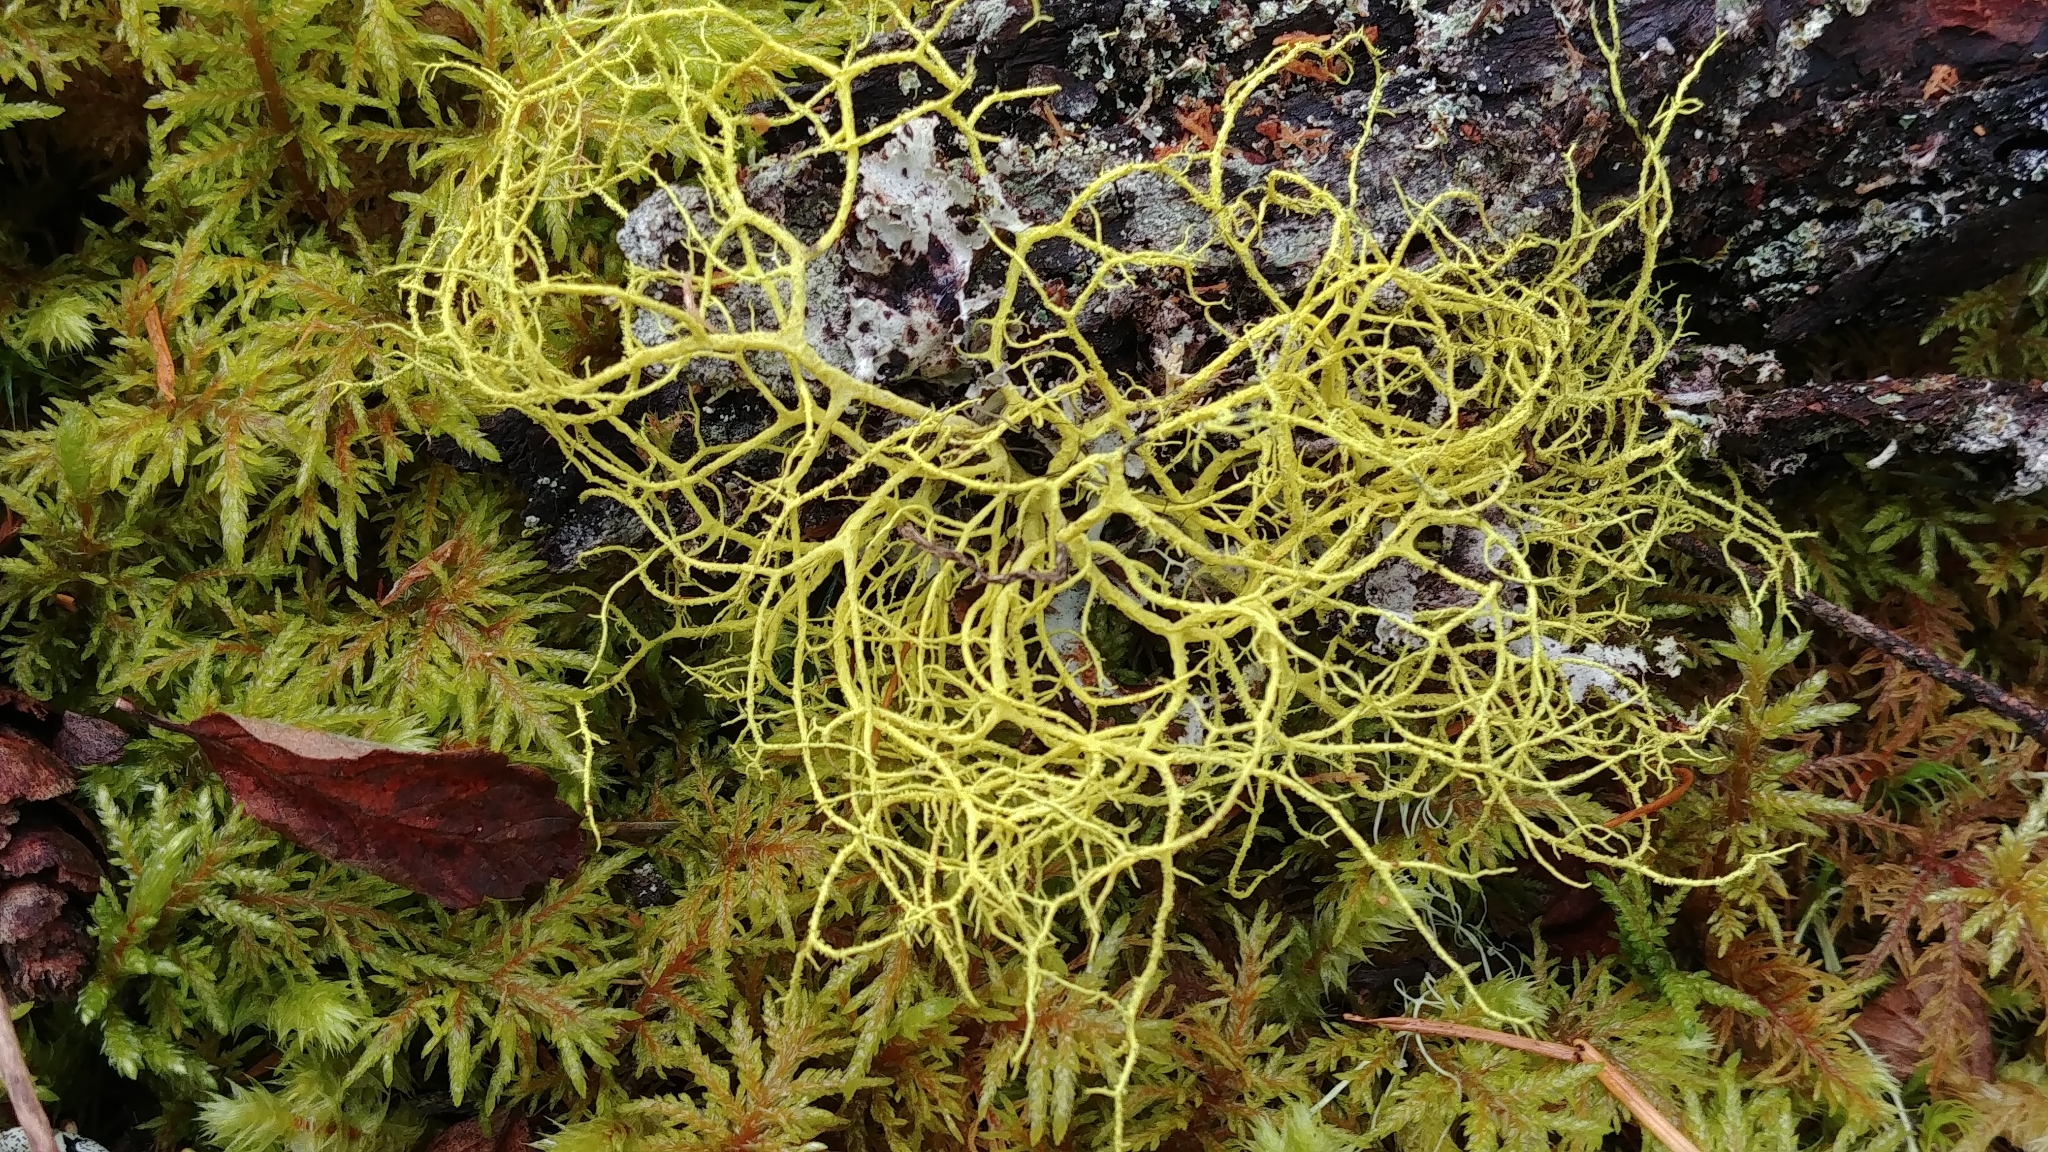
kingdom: Fungi
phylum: Ascomycota
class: Lecanoromycetes
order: Lecanorales
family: Parmeliaceae
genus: Letharia
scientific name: Letharia vulpina
